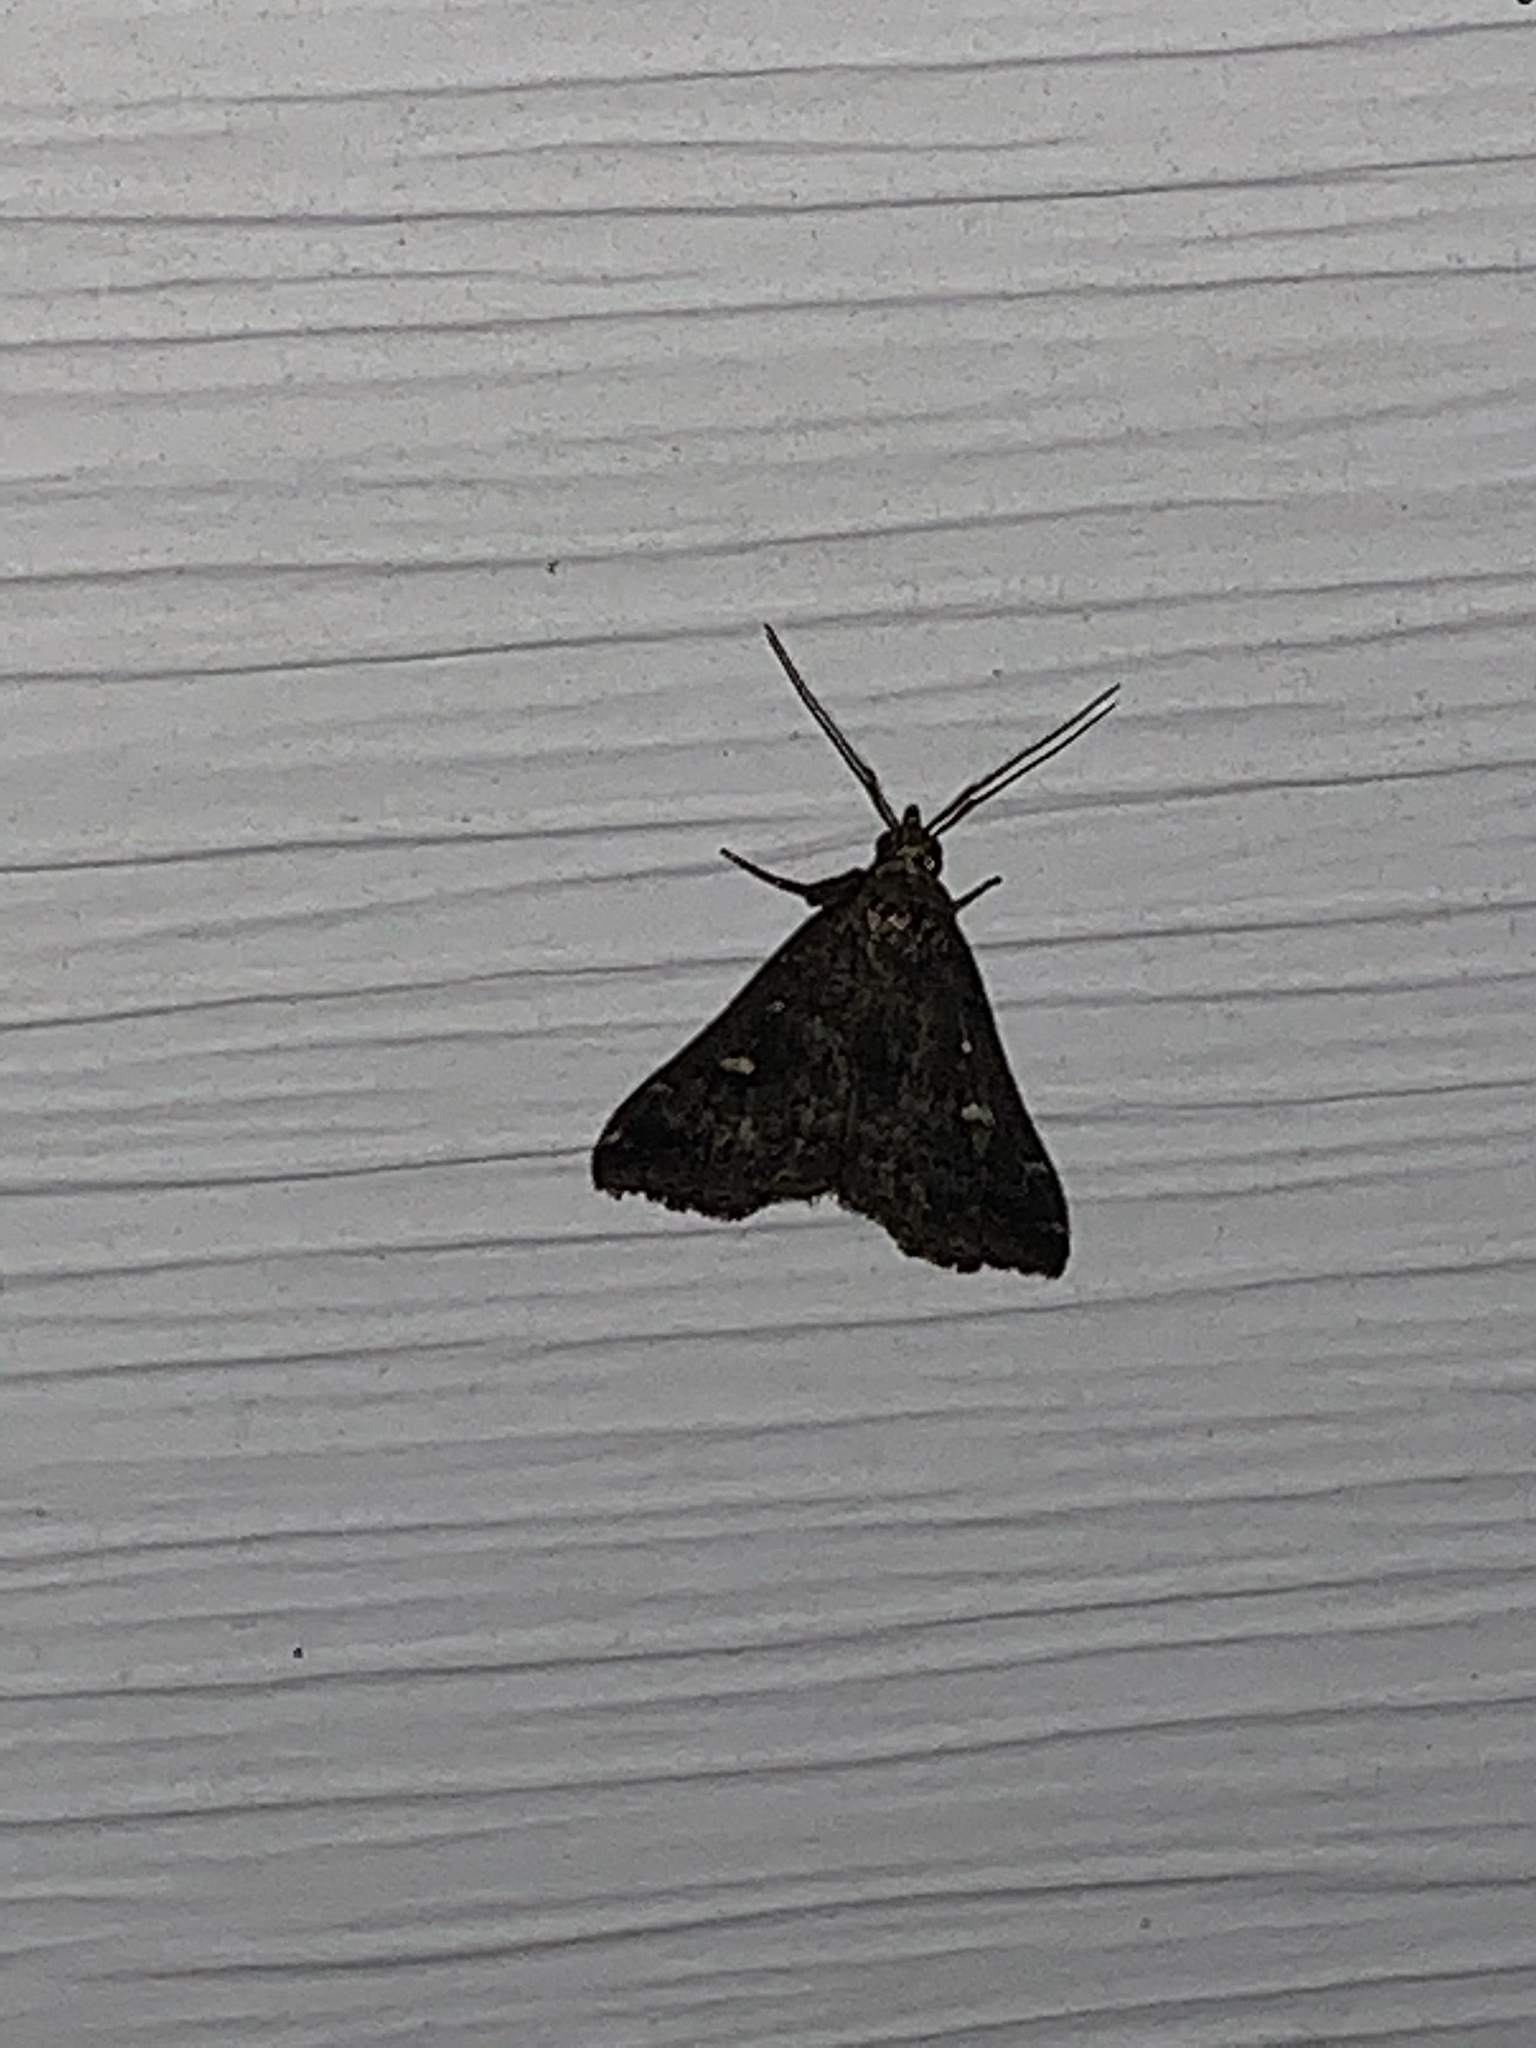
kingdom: Animalia
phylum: Arthropoda
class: Insecta
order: Lepidoptera
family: Erebidae
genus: Tetanolita
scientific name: Tetanolita mynesalis
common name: Smoky tetanolita moth
